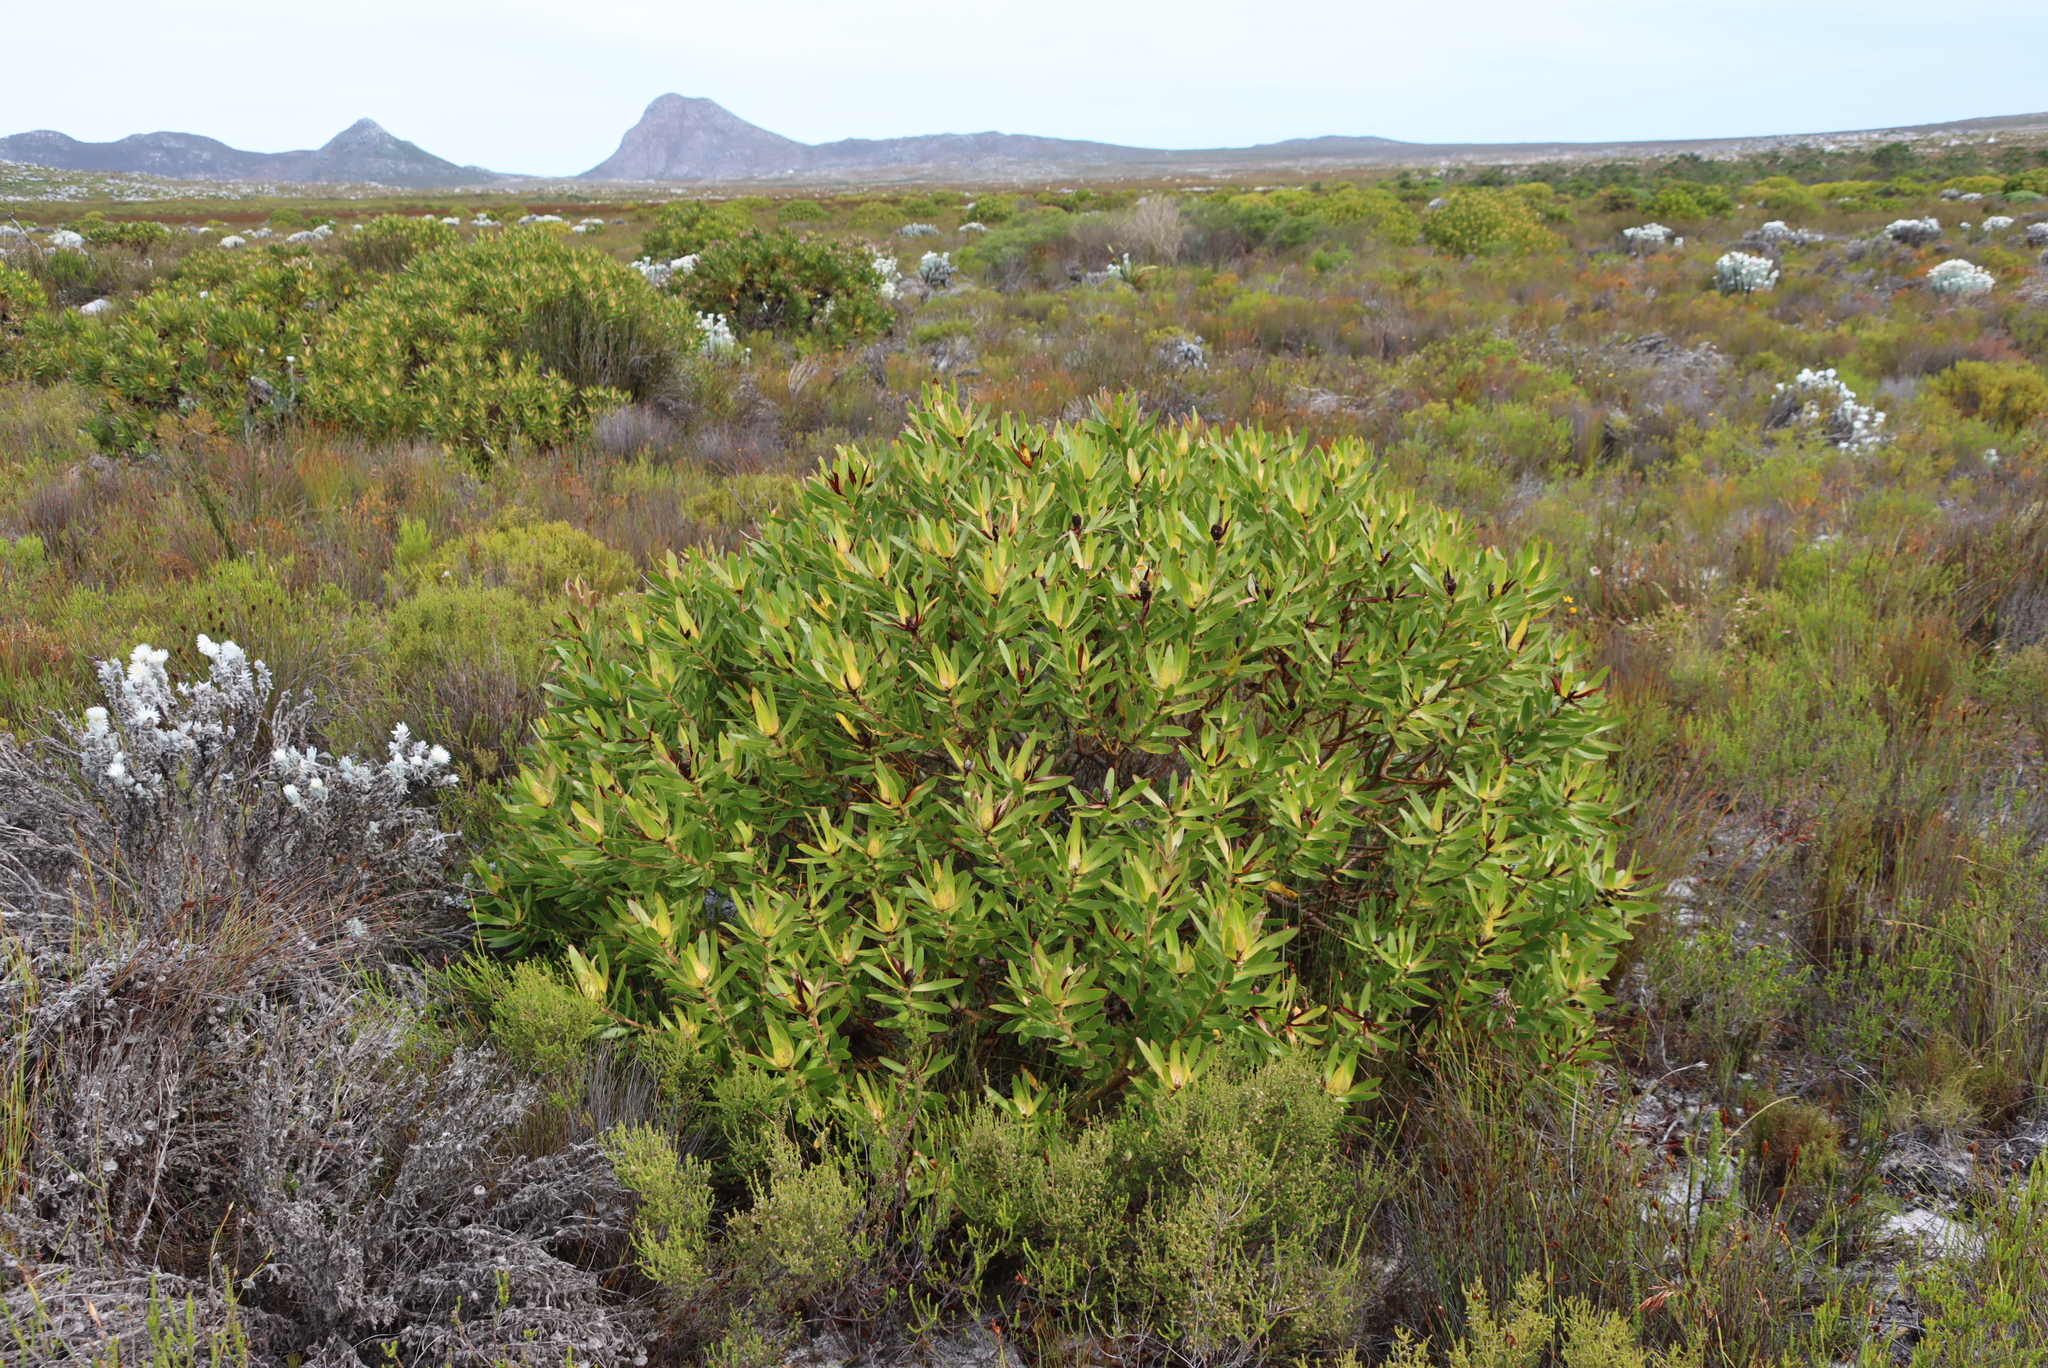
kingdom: Plantae
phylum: Tracheophyta
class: Magnoliopsida
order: Proteales
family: Proteaceae
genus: Leucadendron
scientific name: Leucadendron laureolum
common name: Golden sunshinebush
